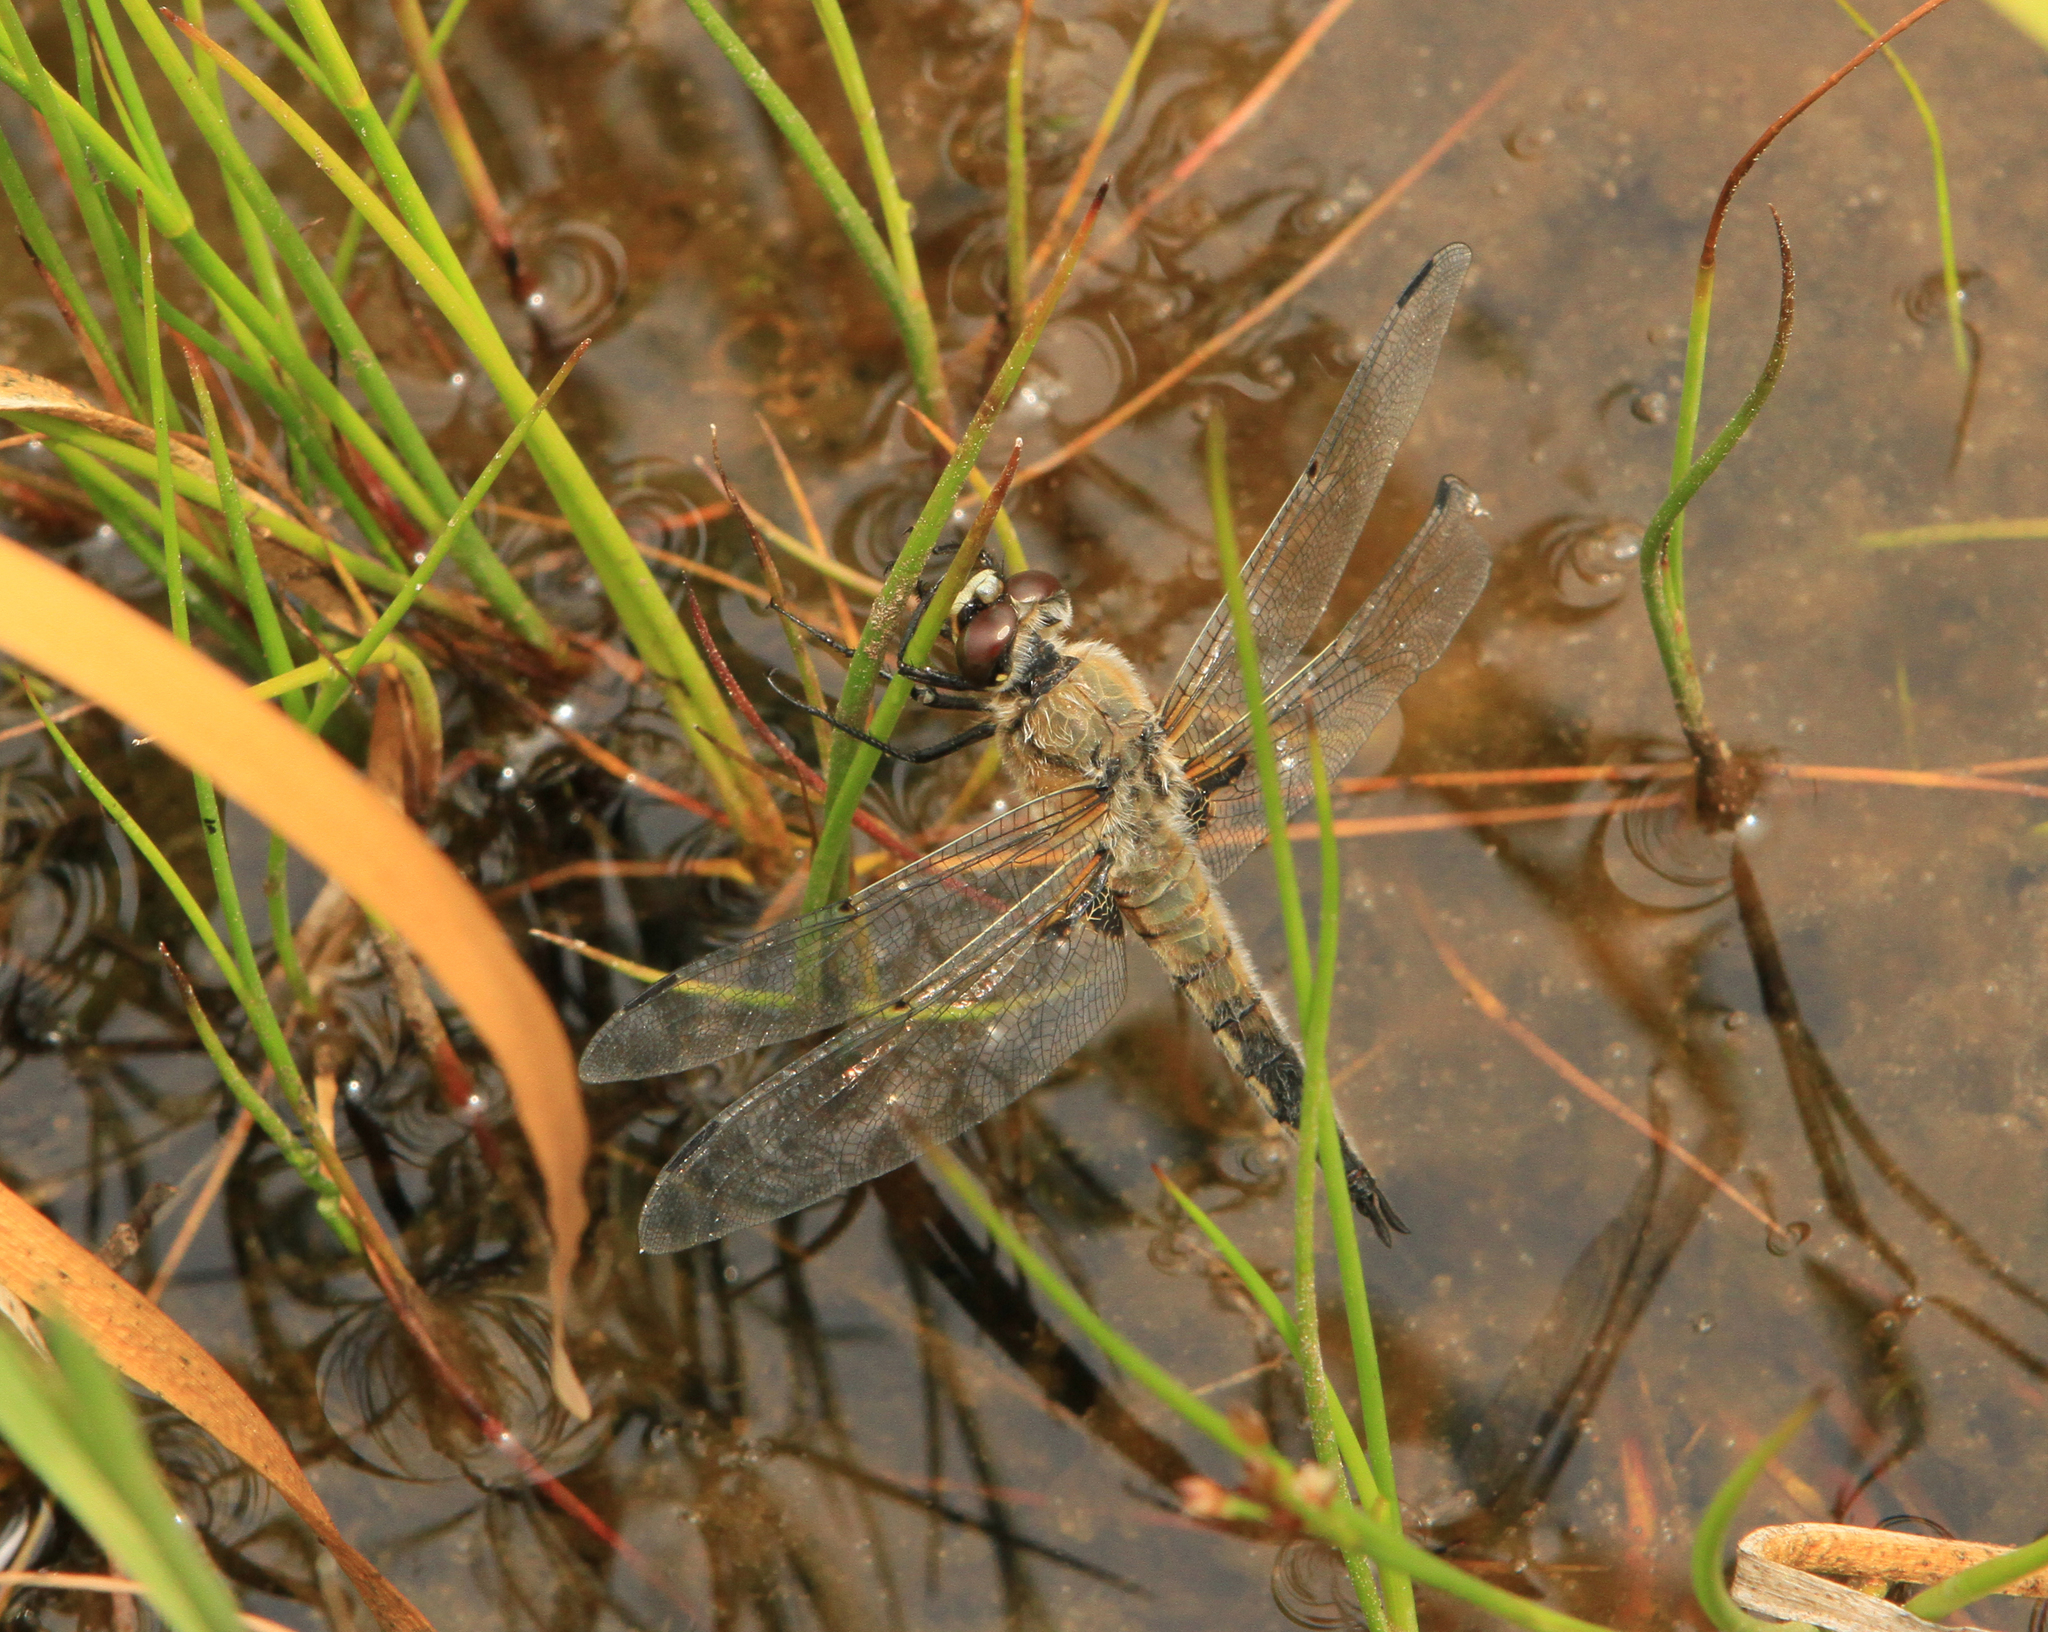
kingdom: Animalia
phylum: Arthropoda
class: Insecta
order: Odonata
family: Libellulidae
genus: Libellula
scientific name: Libellula quadrimaculata
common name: Four-spotted chaser
